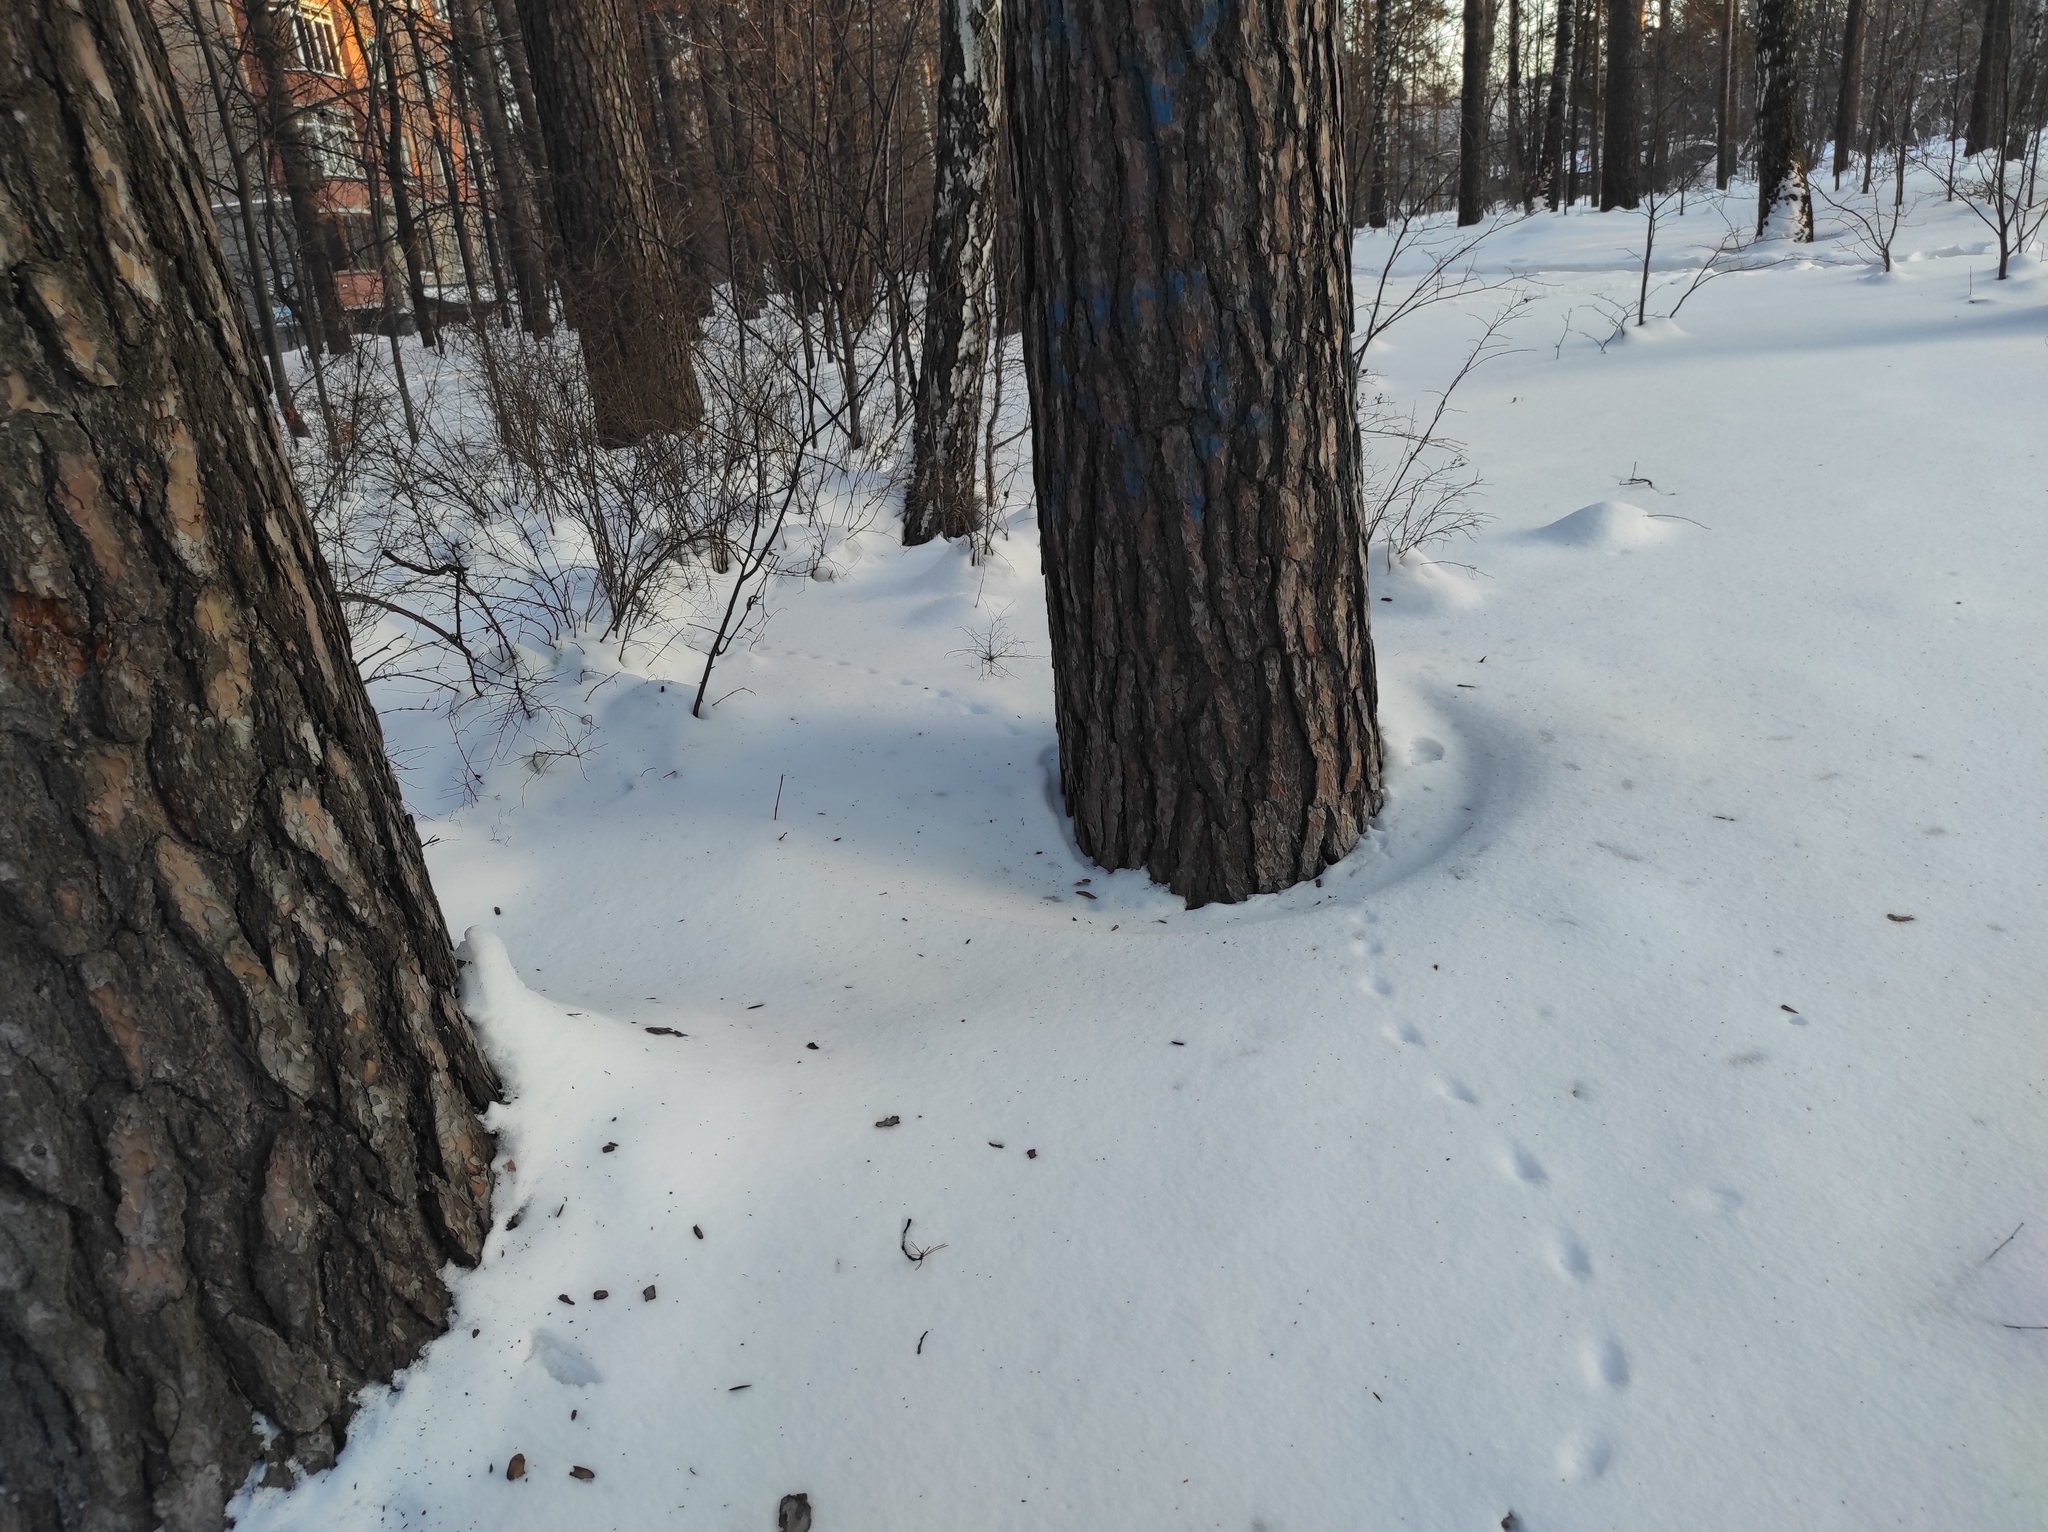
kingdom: Plantae
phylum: Tracheophyta
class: Pinopsida
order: Pinales
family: Pinaceae
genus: Pinus
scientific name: Pinus sylvestris
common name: Scots pine
